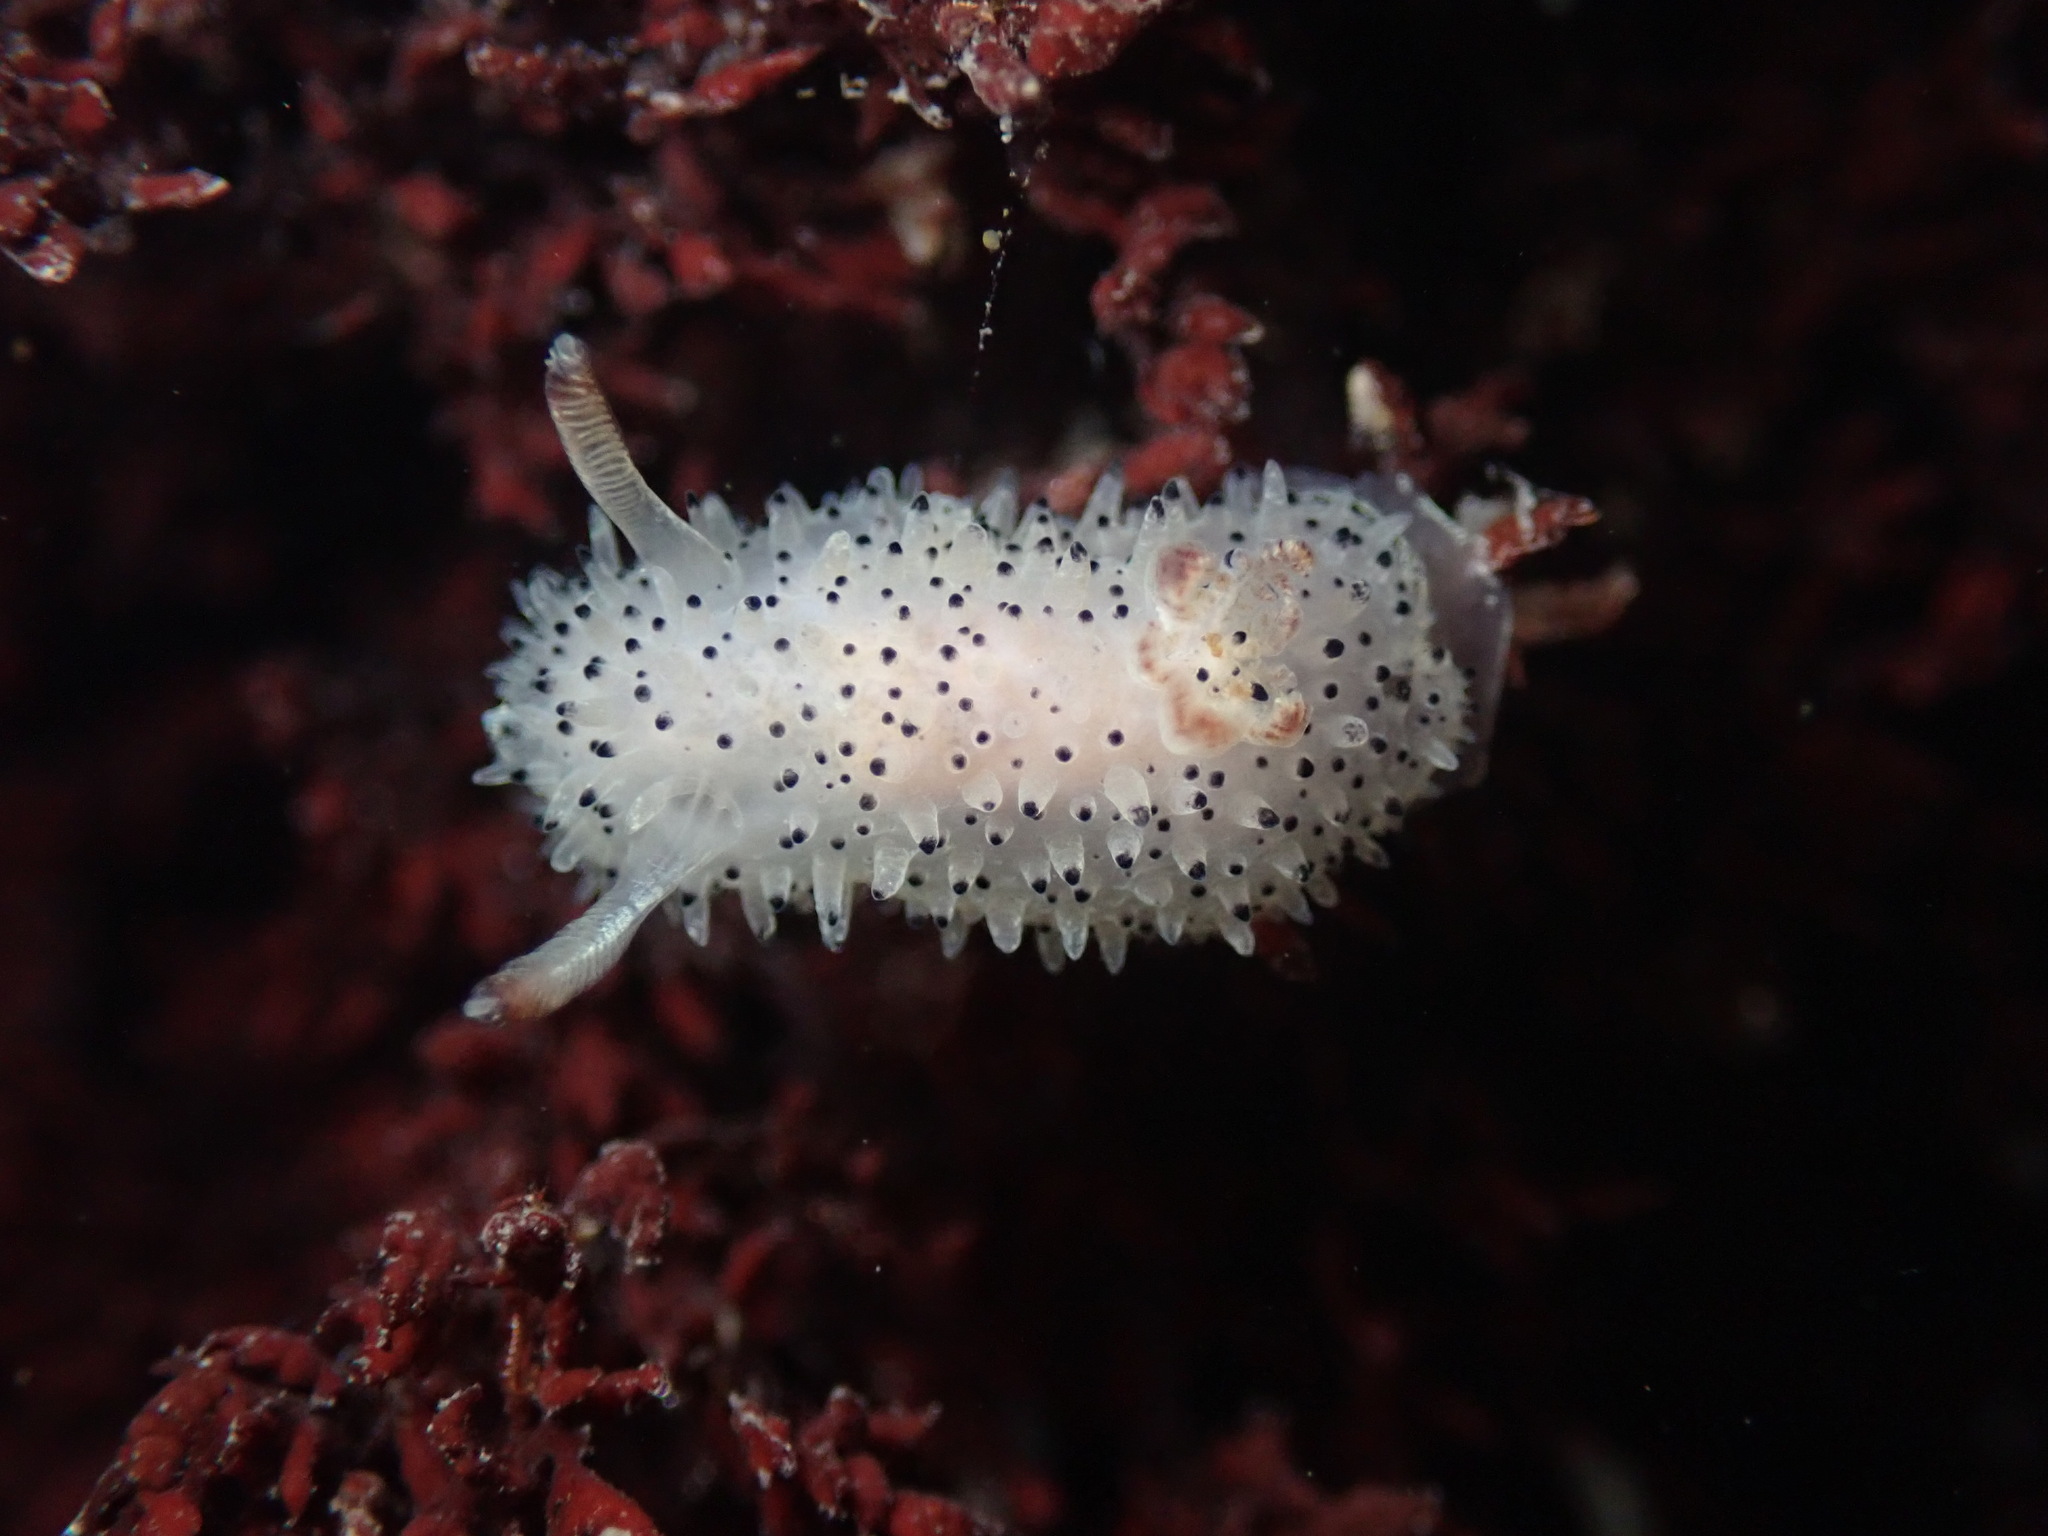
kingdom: Animalia
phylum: Mollusca
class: Gastropoda
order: Nudibranchia
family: Onchidorididae
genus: Acanthodoris
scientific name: Acanthodoris rhodoceras
